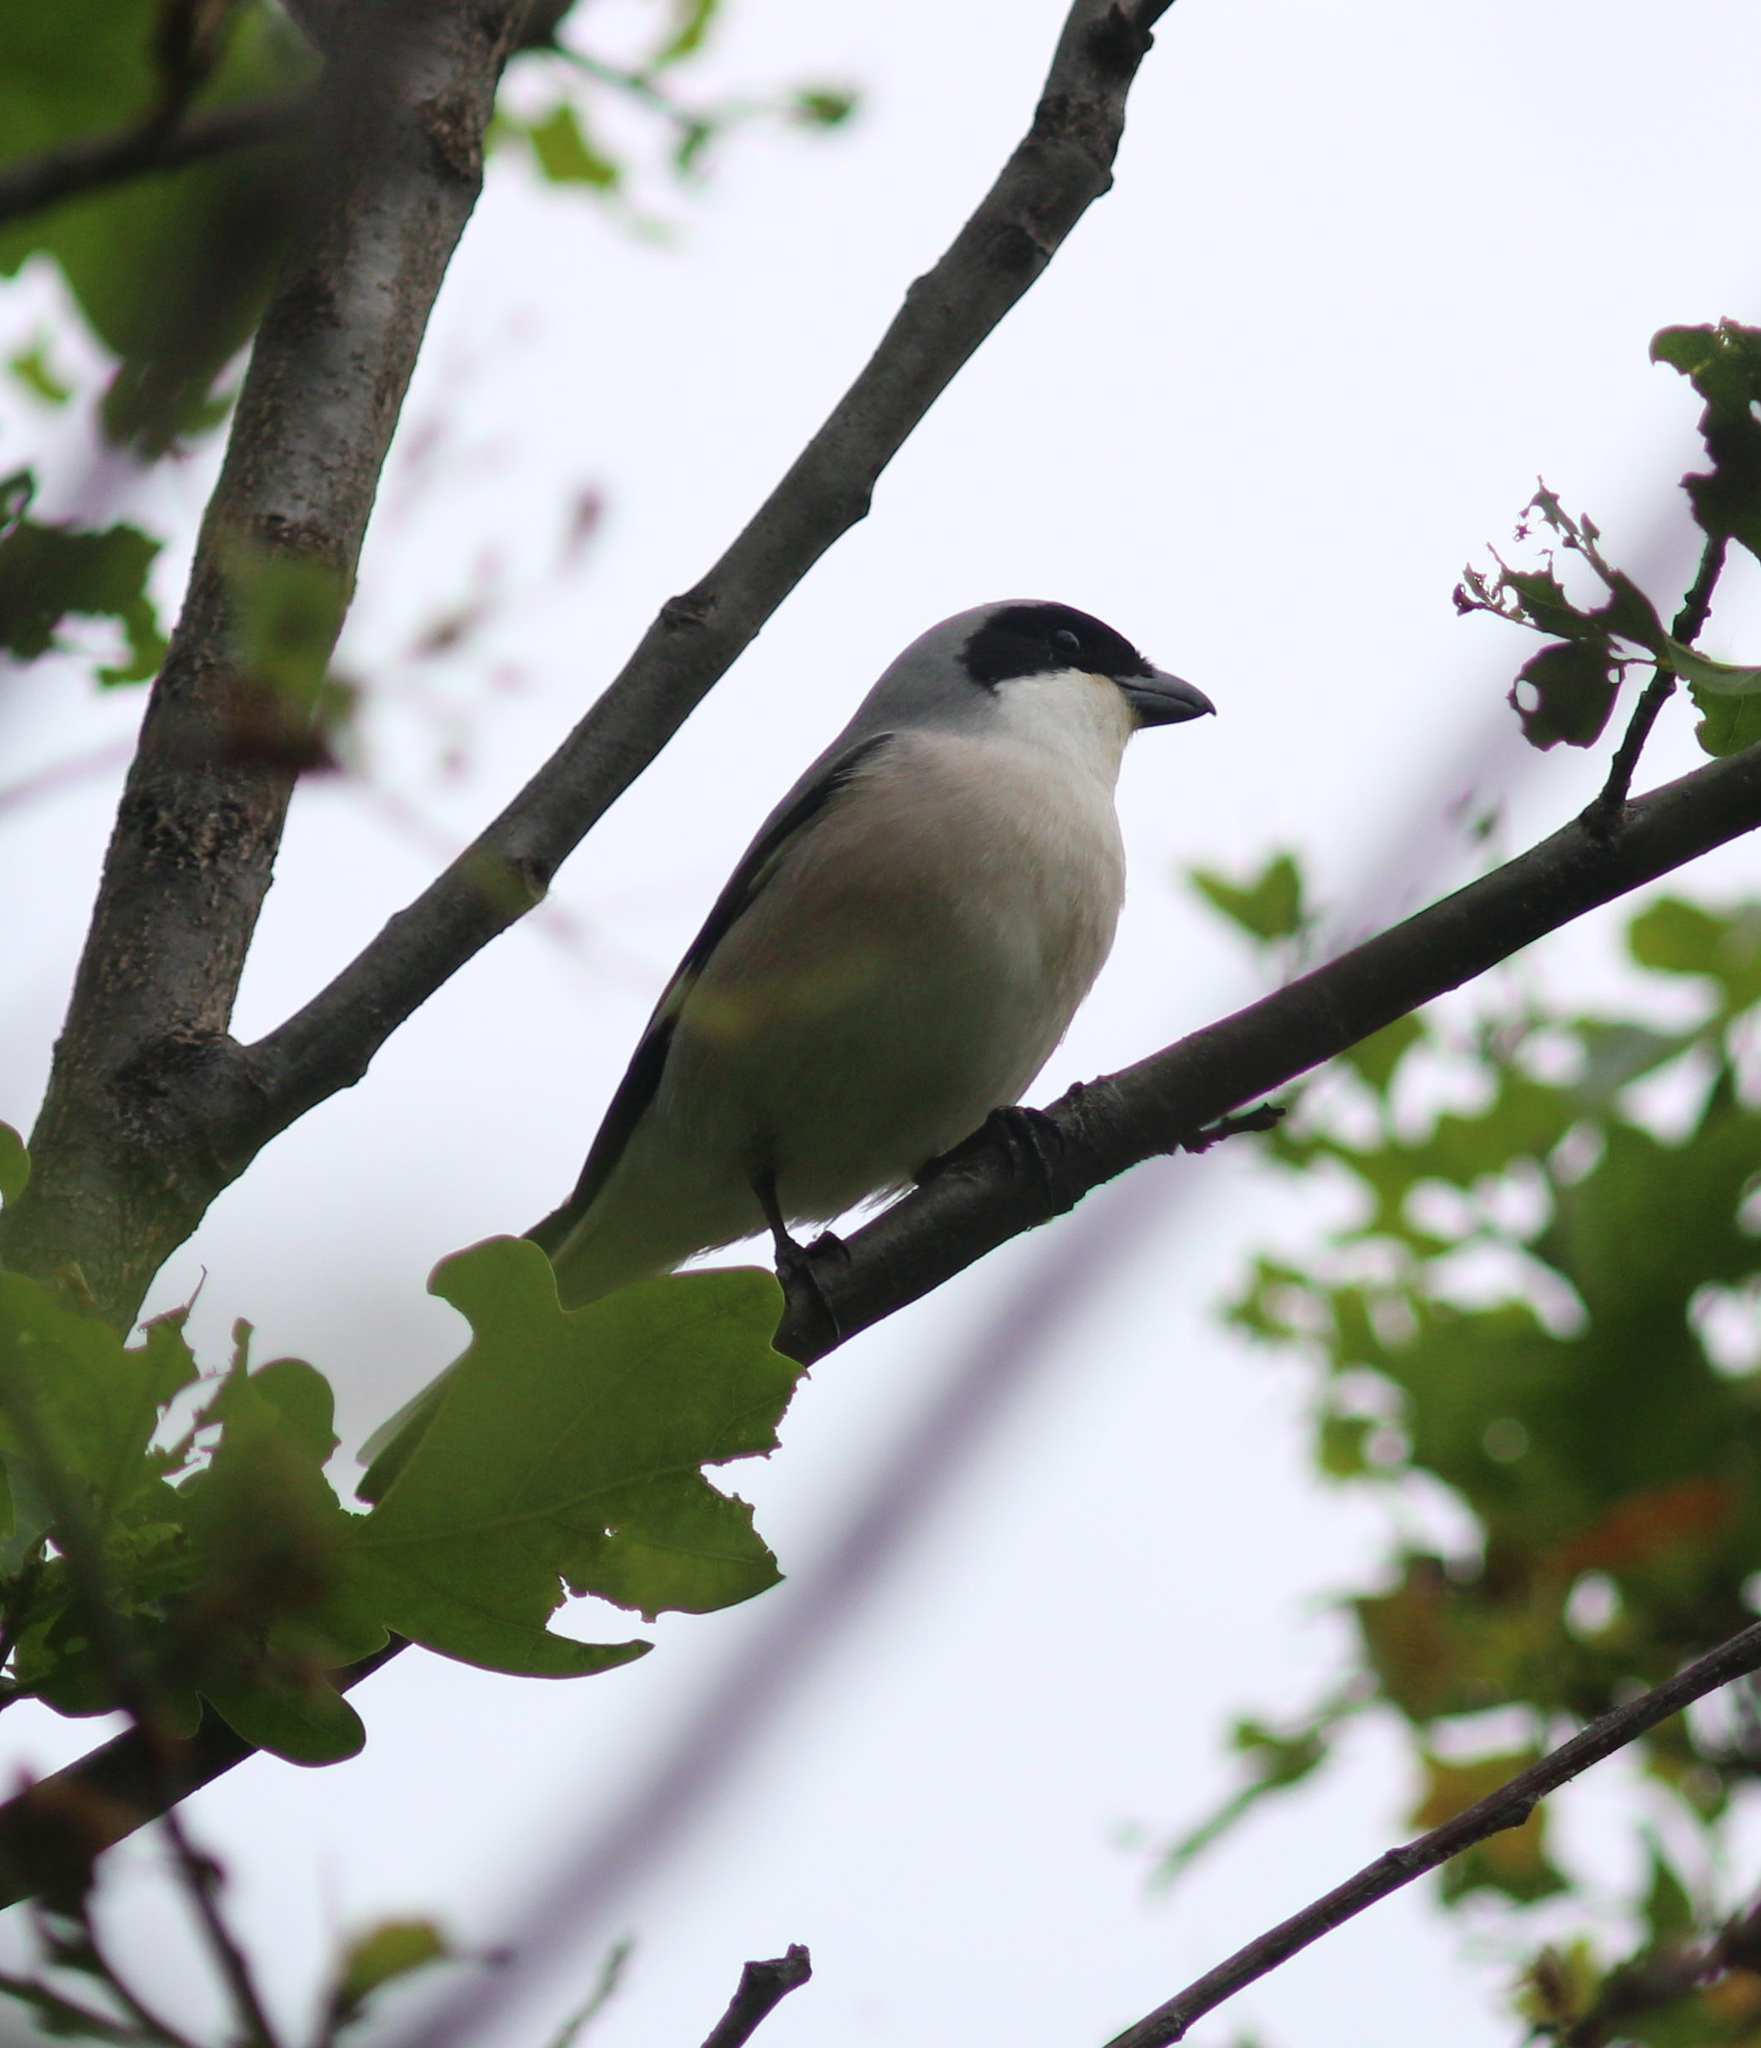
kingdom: Animalia
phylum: Chordata
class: Aves
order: Passeriformes
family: Laniidae
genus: Lanius
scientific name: Lanius minor
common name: Lesser grey shrike
